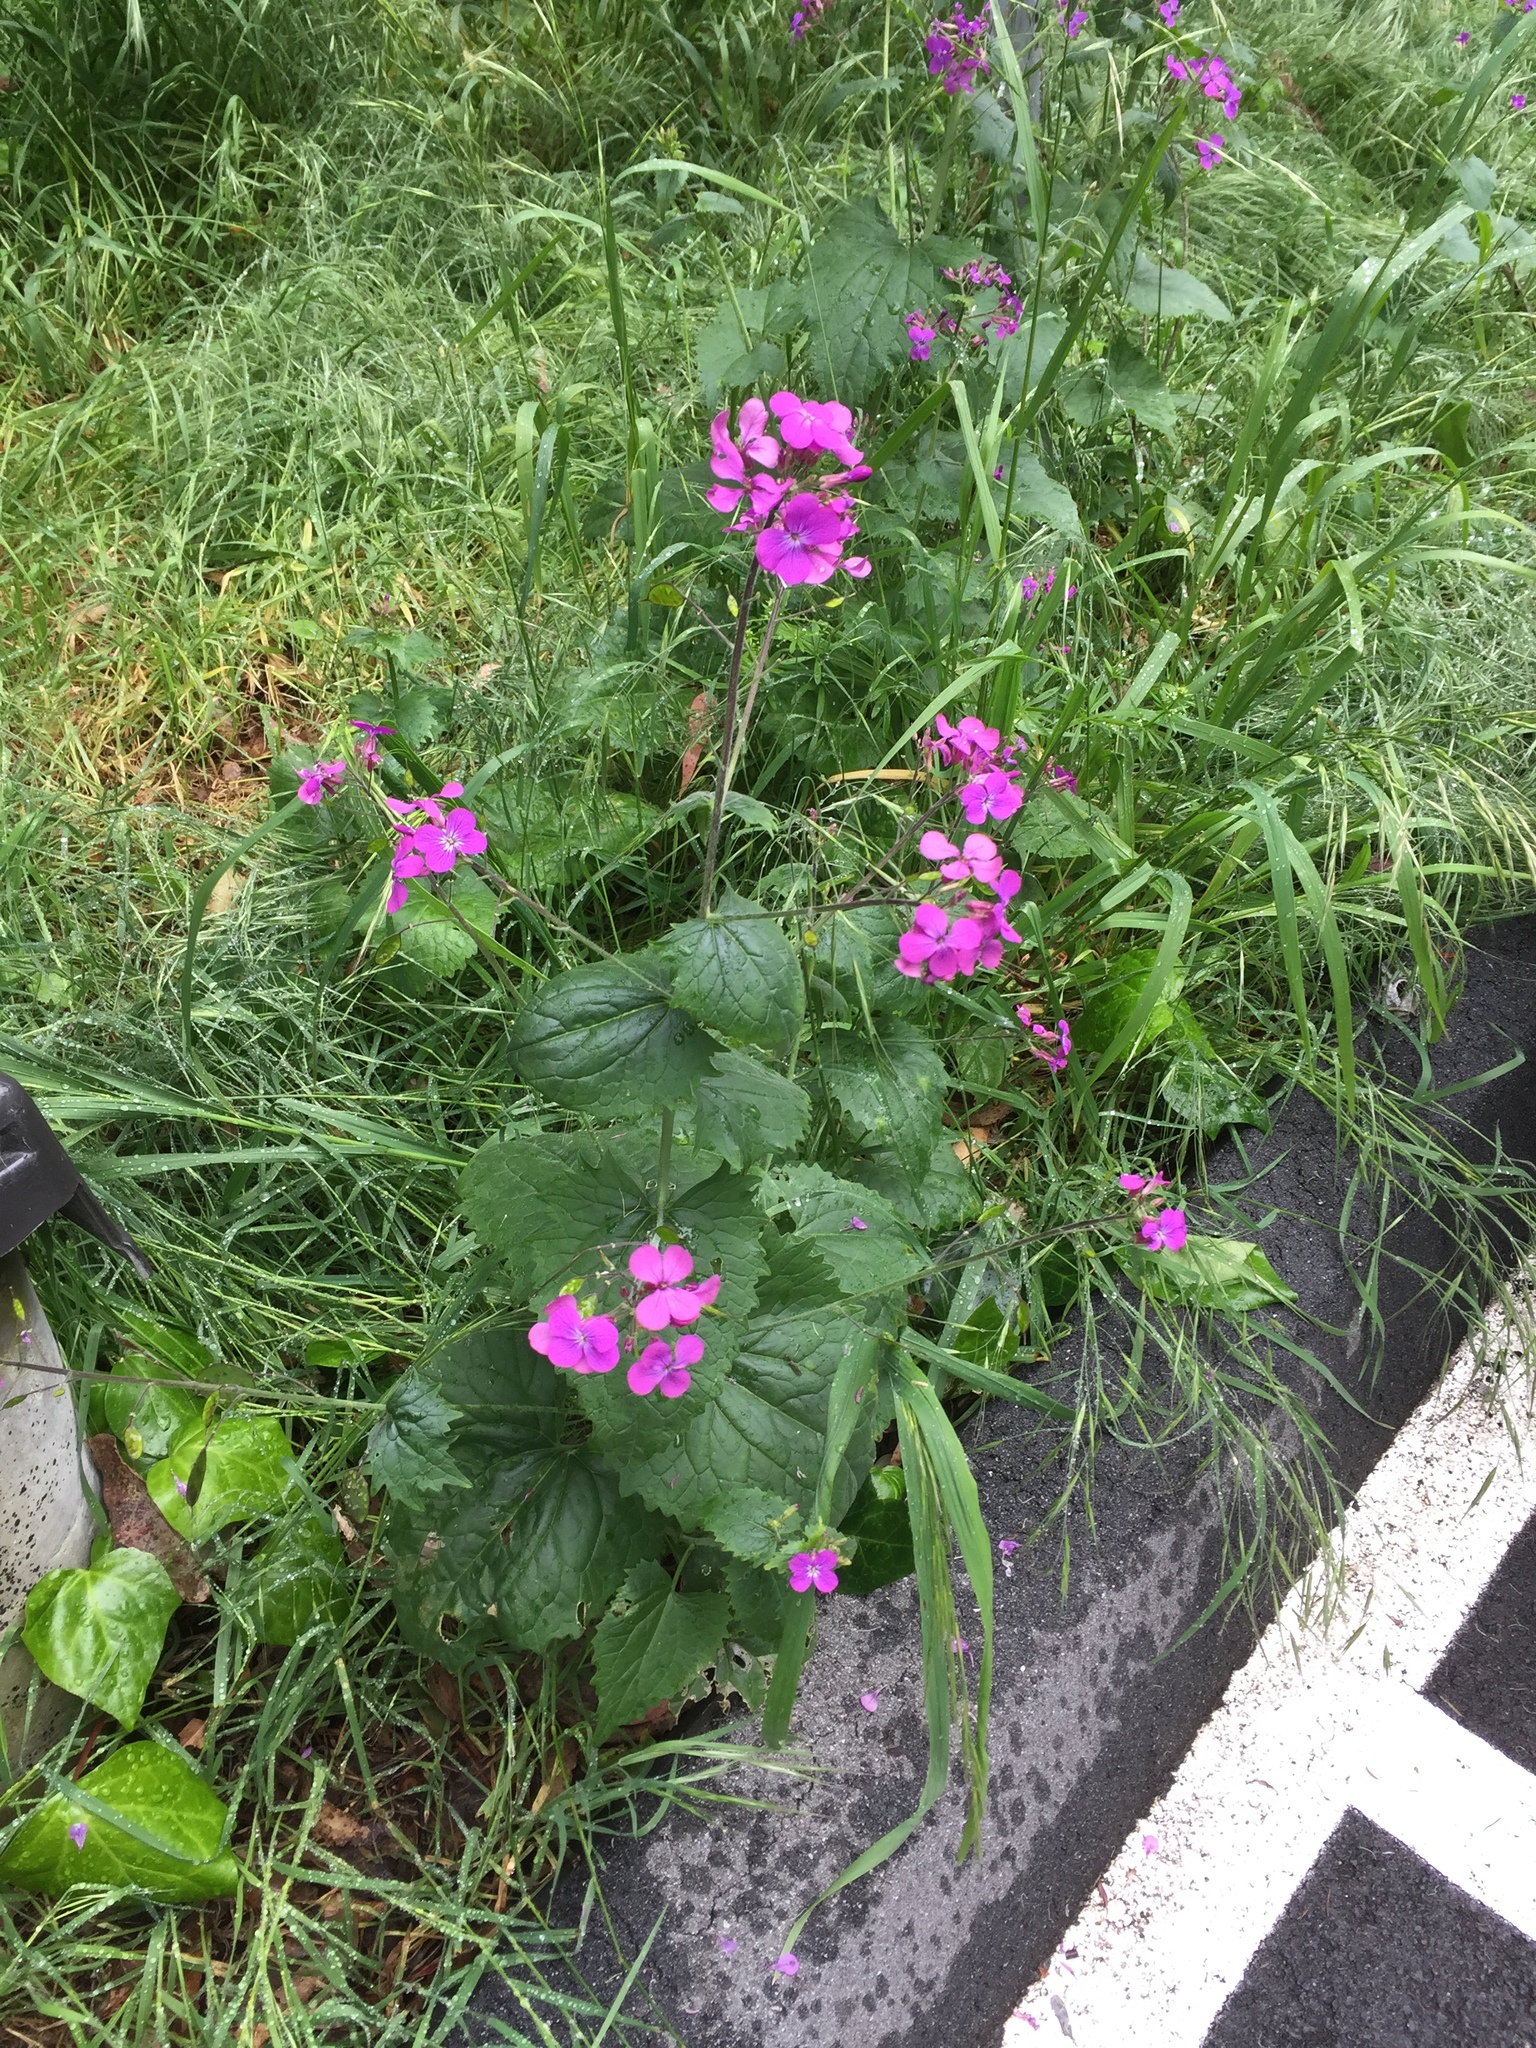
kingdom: Plantae
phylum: Tracheophyta
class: Magnoliopsida
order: Brassicales
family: Brassicaceae
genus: Lunaria
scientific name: Lunaria annua
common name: Honesty
